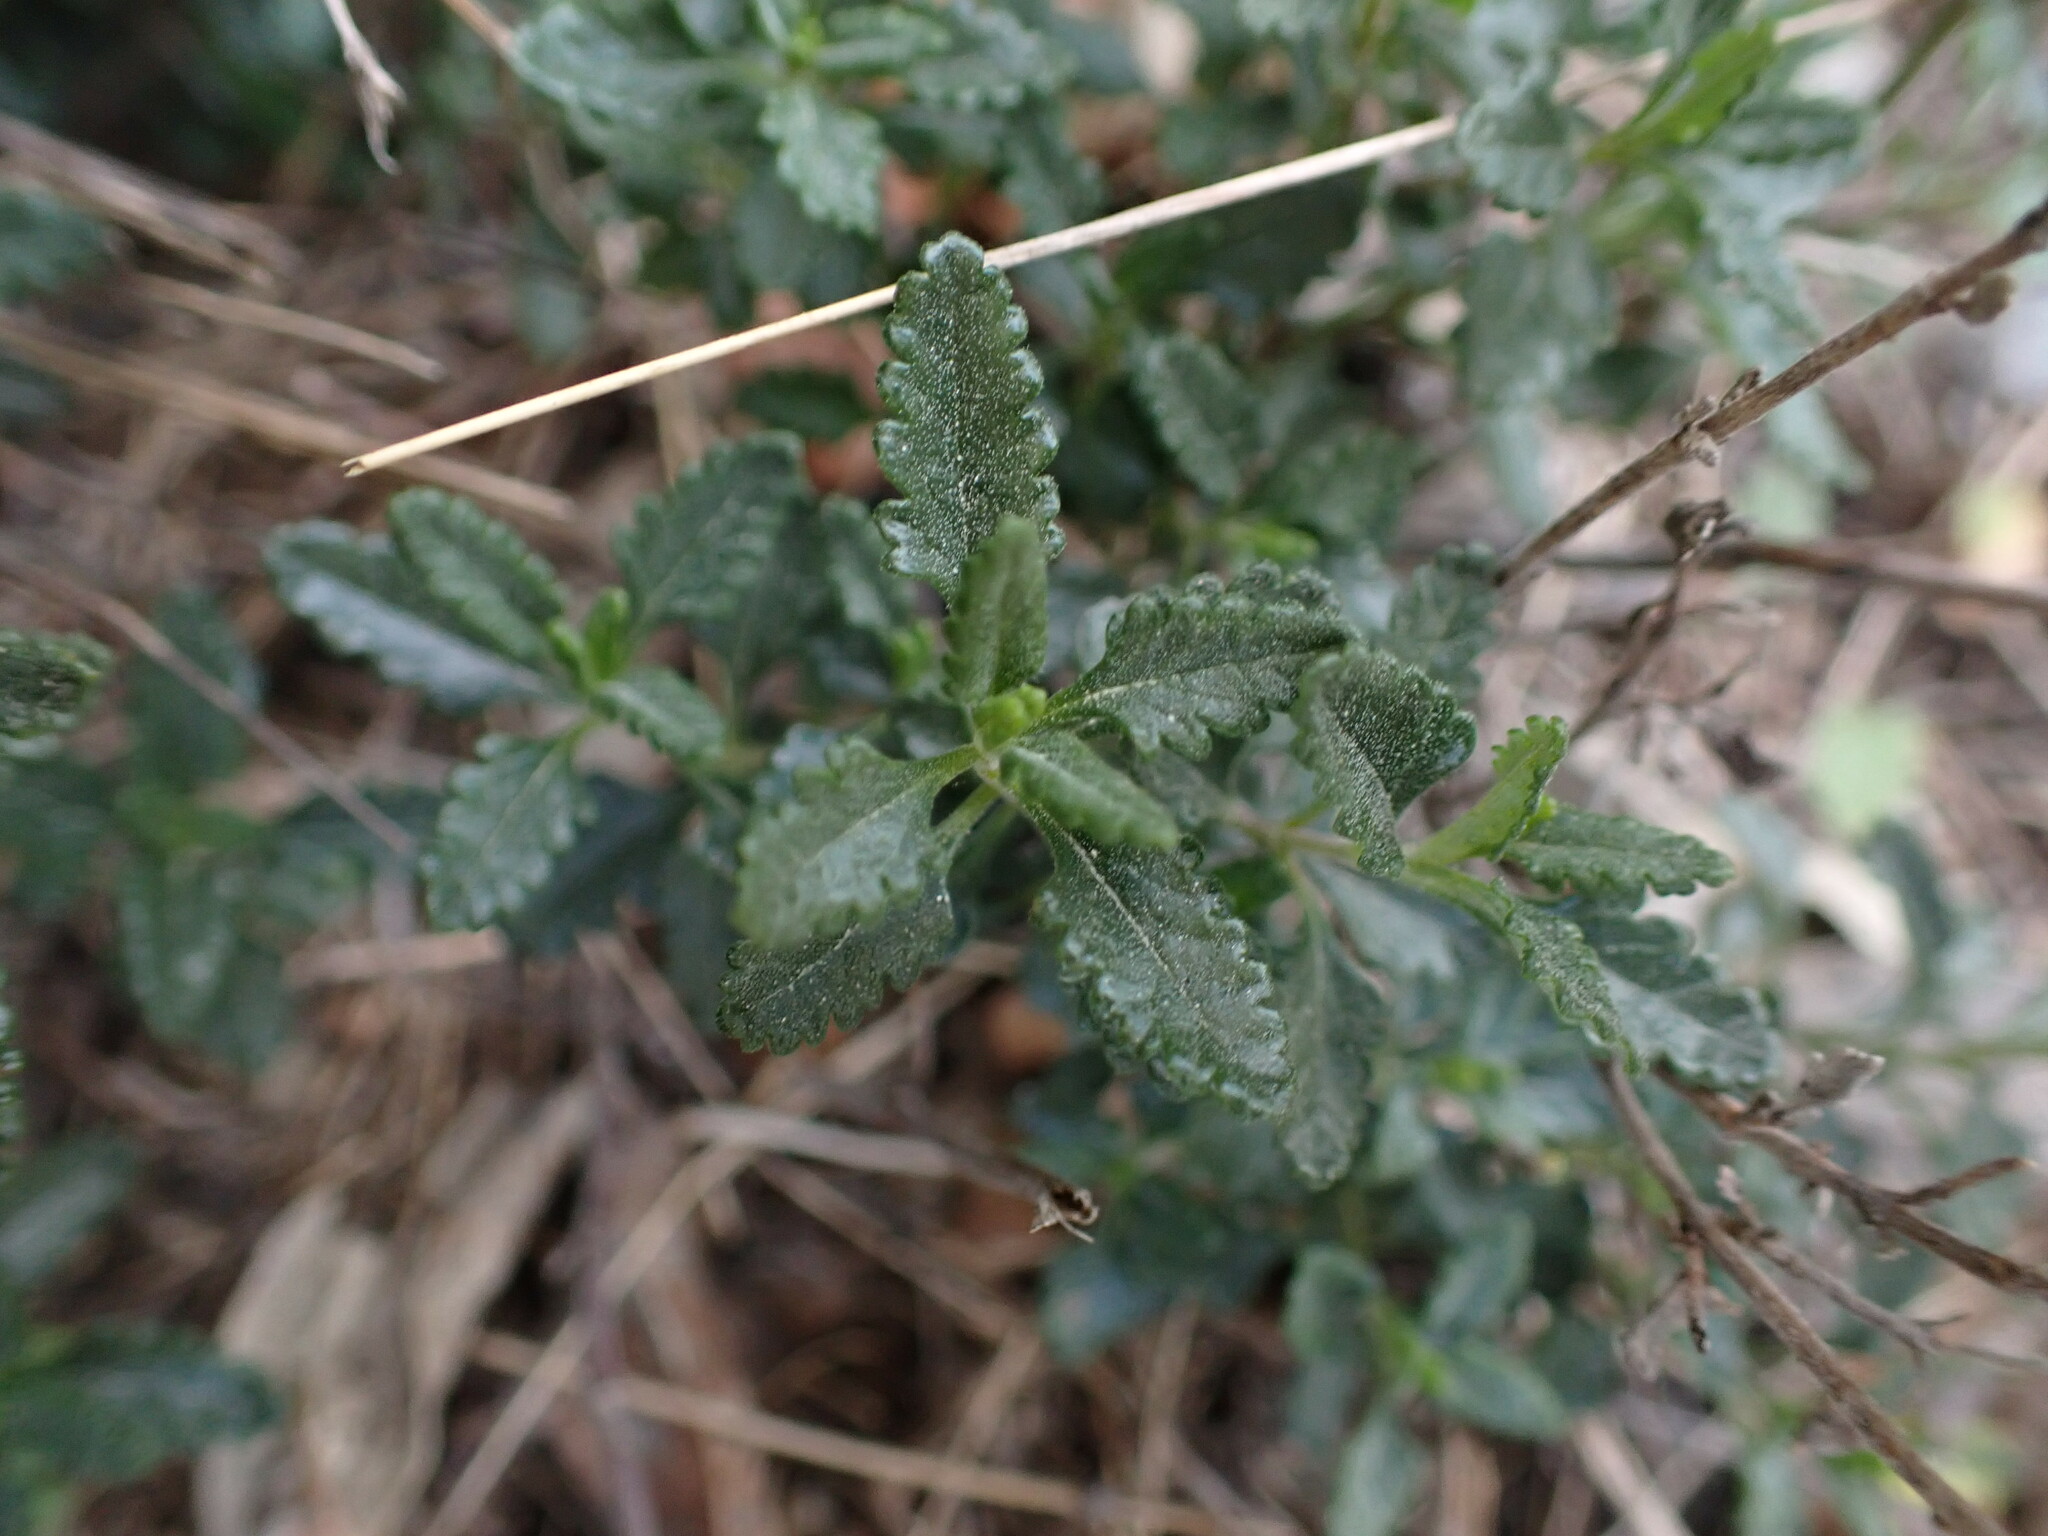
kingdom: Plantae
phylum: Tracheophyta
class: Magnoliopsida
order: Lamiales
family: Lamiaceae
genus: Teucrium
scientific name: Teucrium chamaedrys
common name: Wall germander
